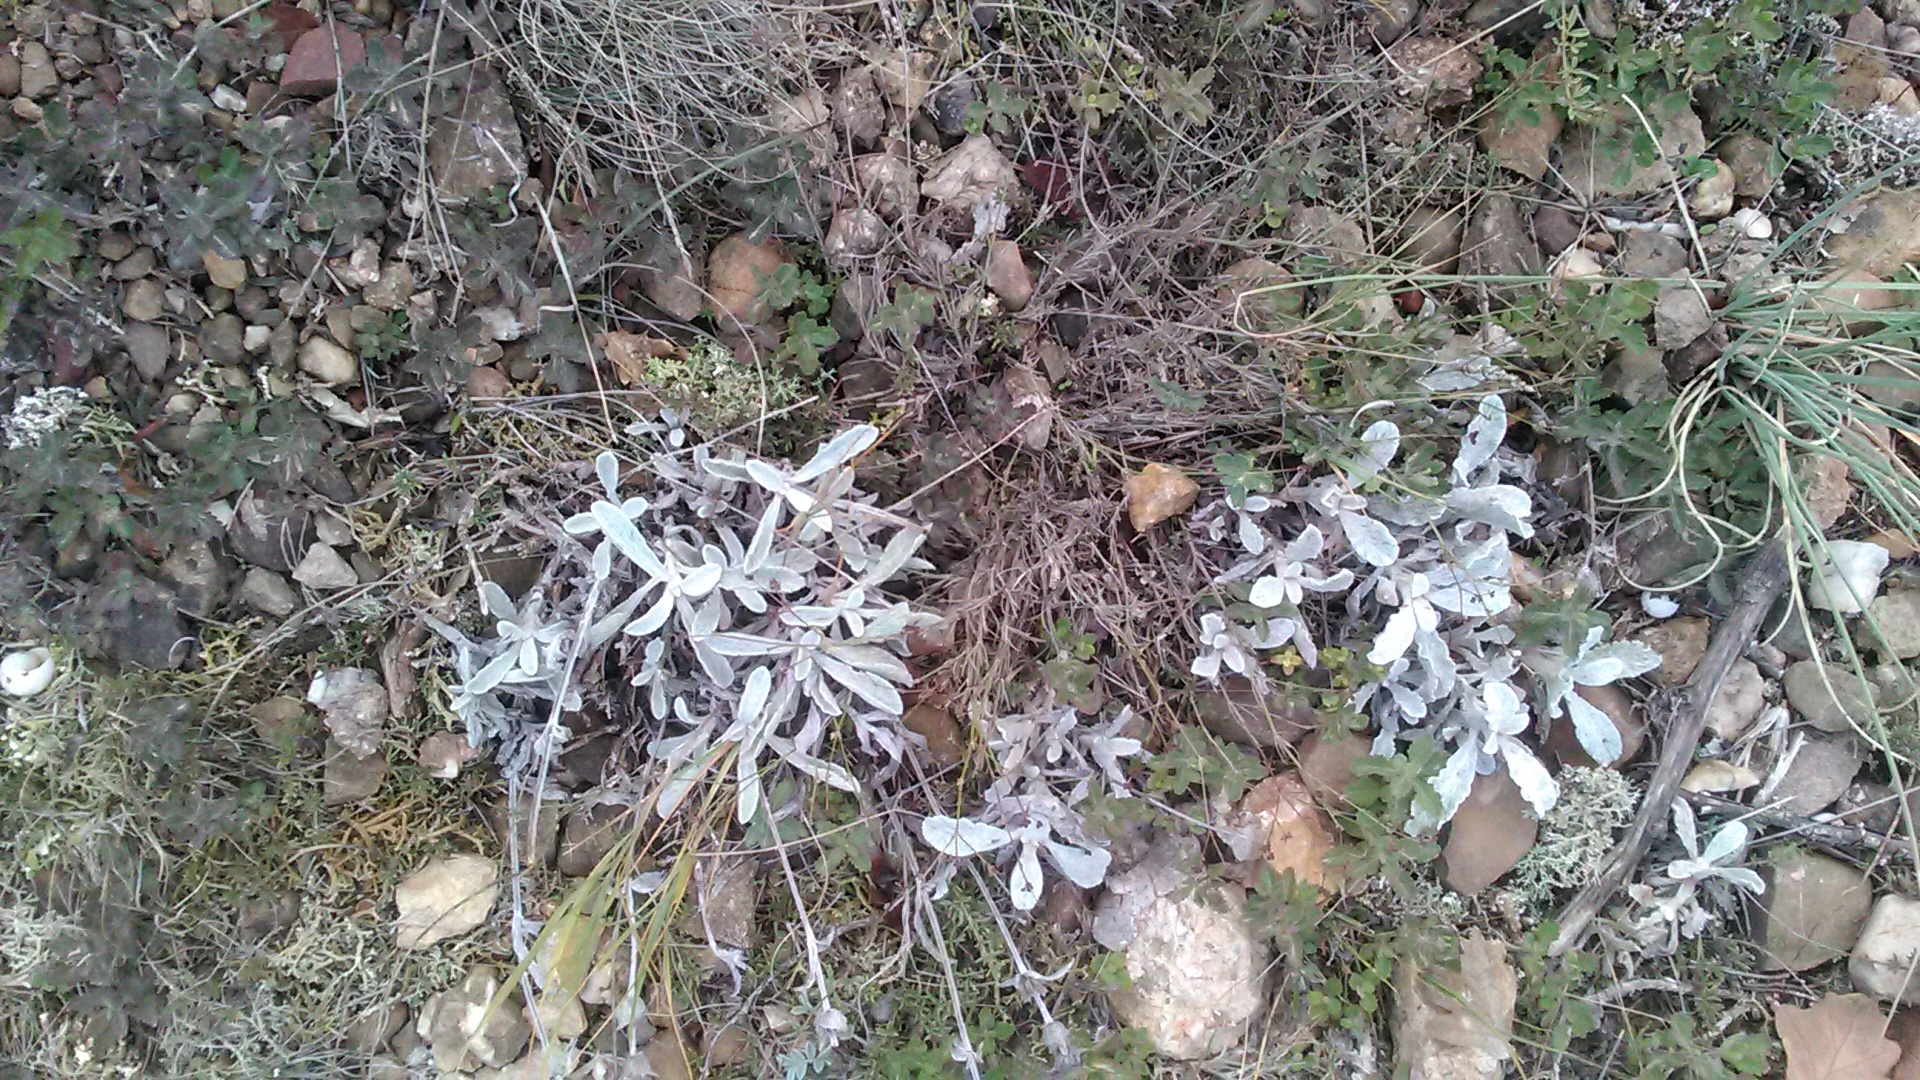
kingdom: Plantae
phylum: Tracheophyta
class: Magnoliopsida
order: Lamiales
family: Lamiaceae
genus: Sideritis
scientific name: Sideritis taurica
